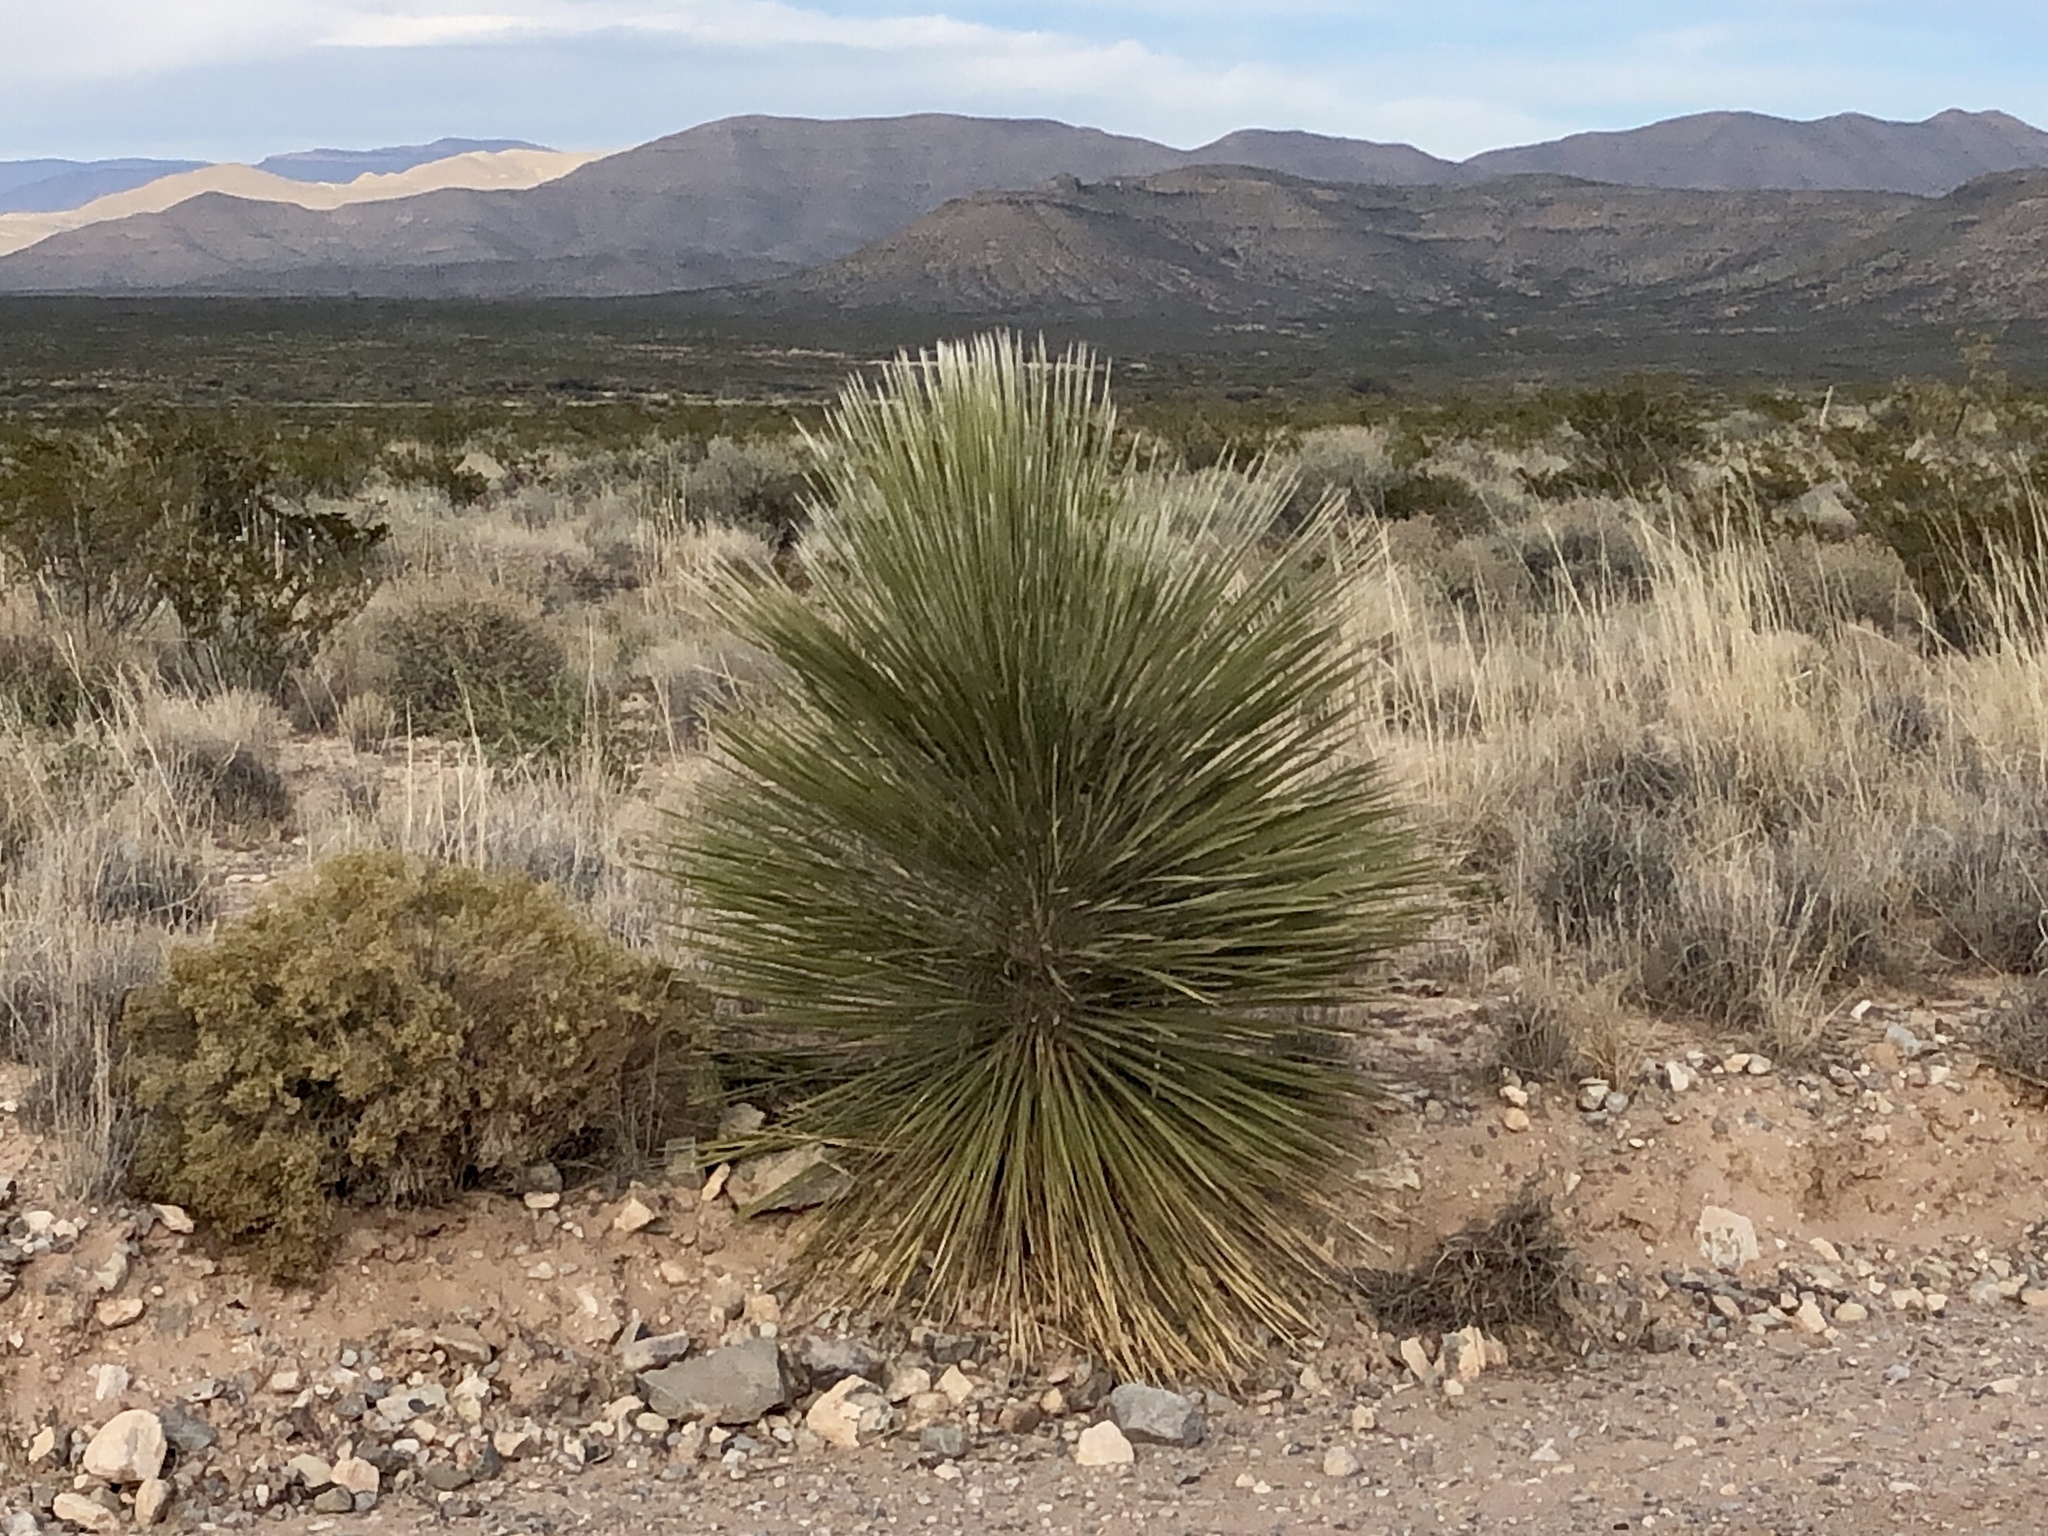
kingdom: Plantae
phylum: Tracheophyta
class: Liliopsida
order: Asparagales
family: Asparagaceae
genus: Yucca
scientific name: Yucca elata
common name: Palmella
